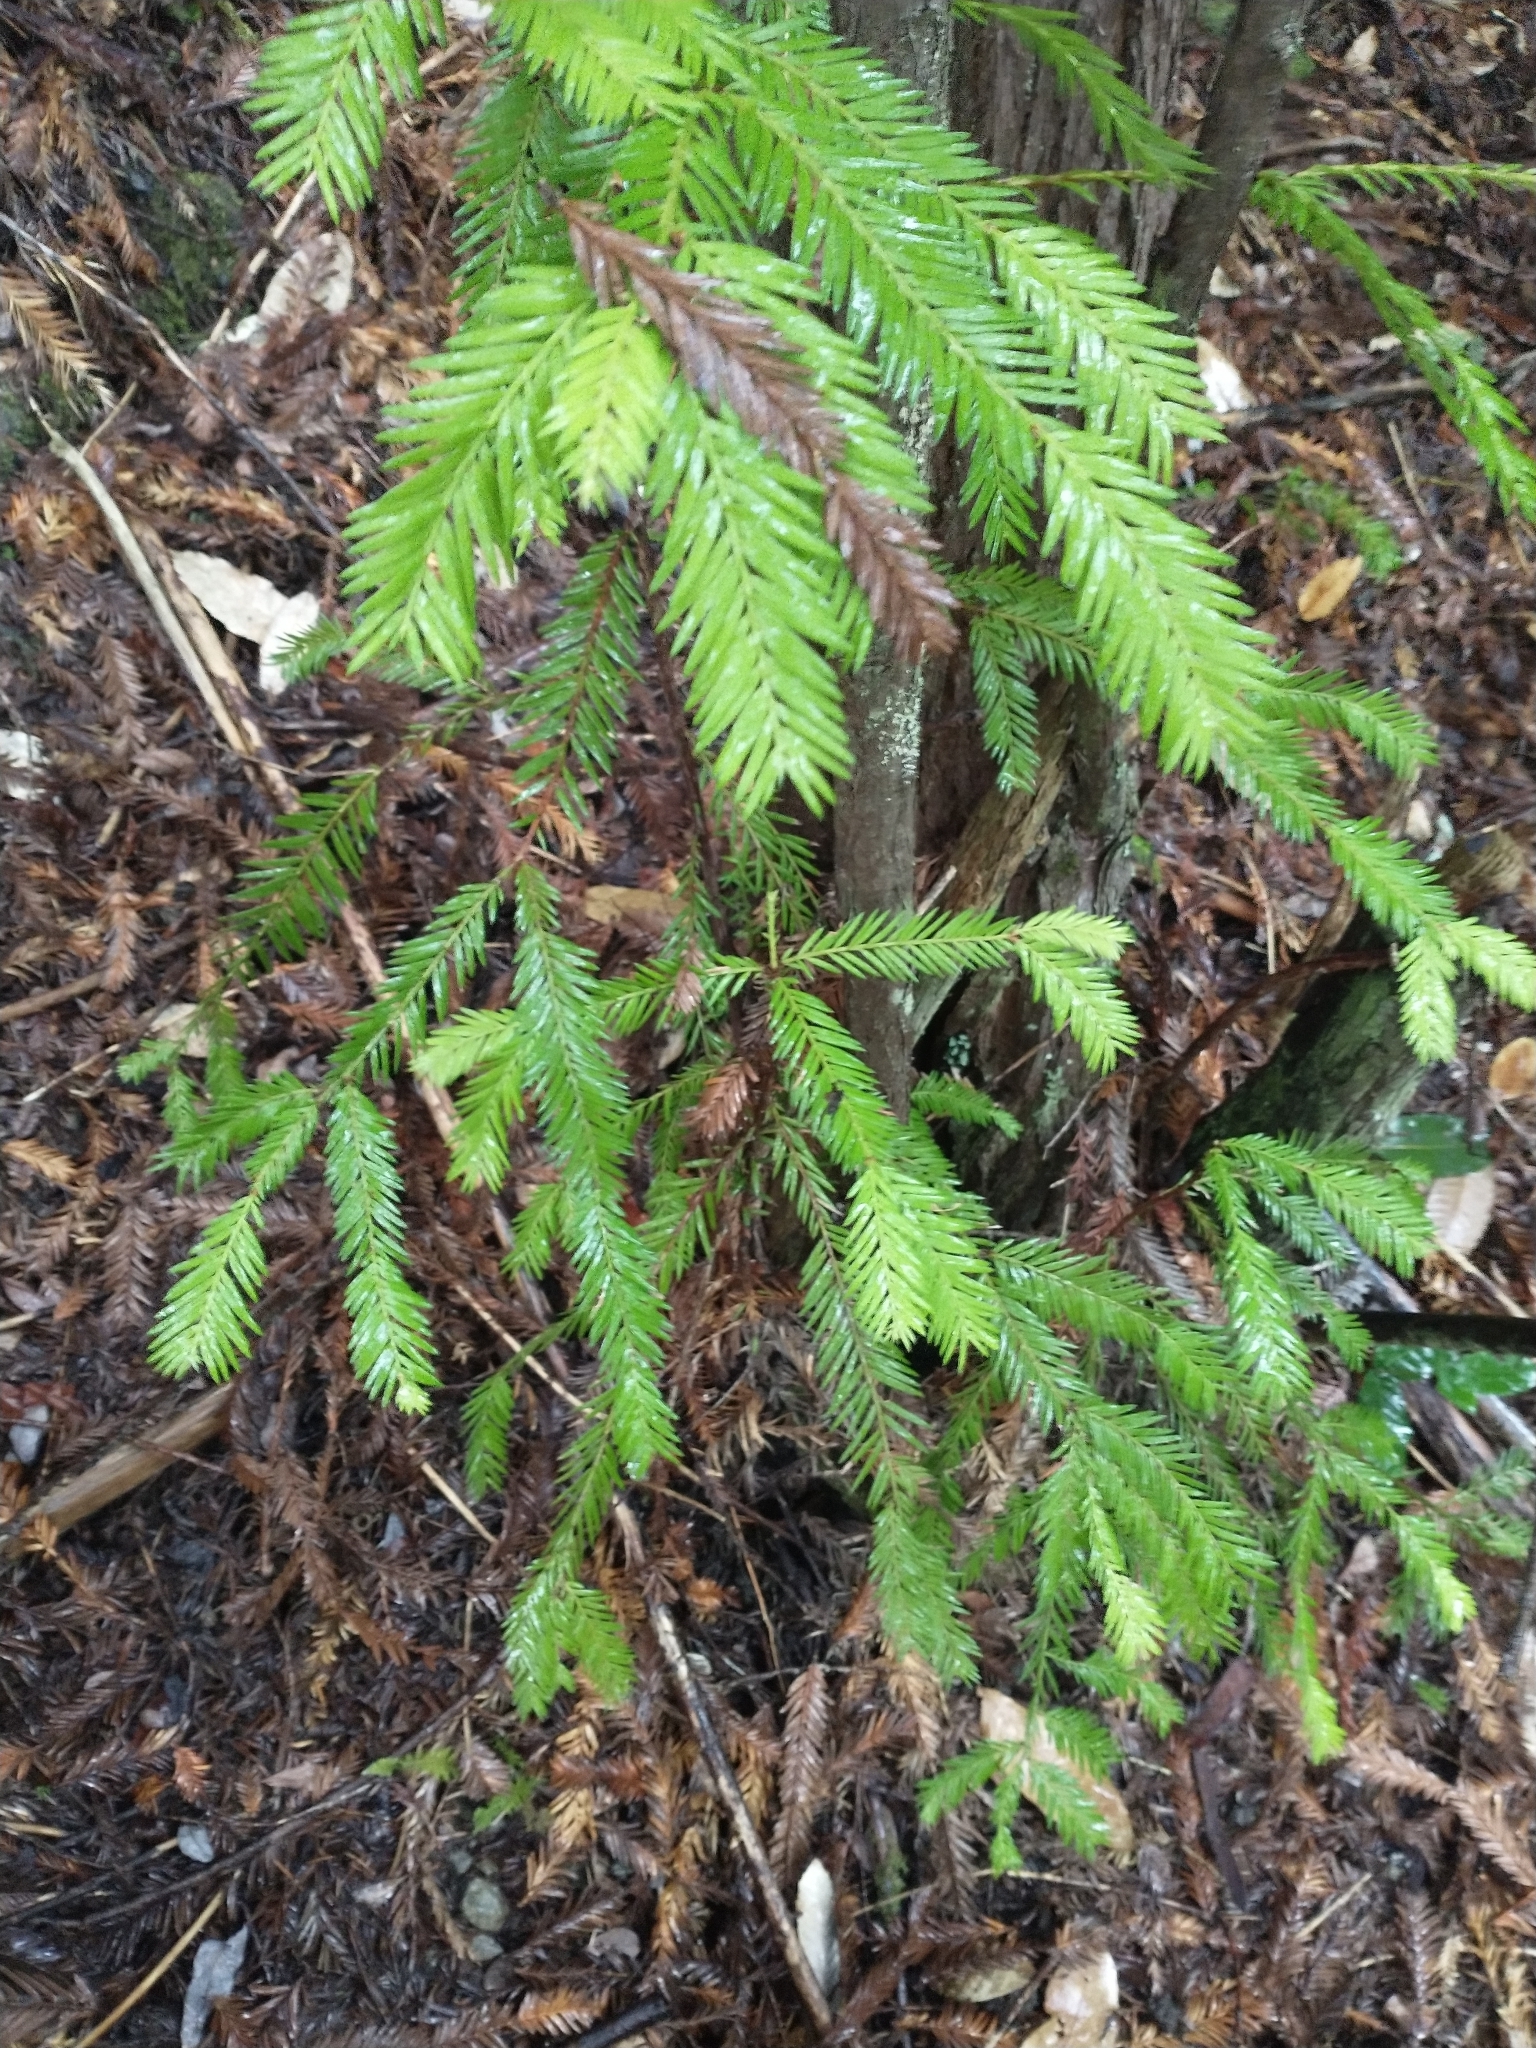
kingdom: Plantae
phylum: Tracheophyta
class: Pinopsida
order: Pinales
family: Cupressaceae
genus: Sequoia
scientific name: Sequoia sempervirens
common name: Coast redwood
